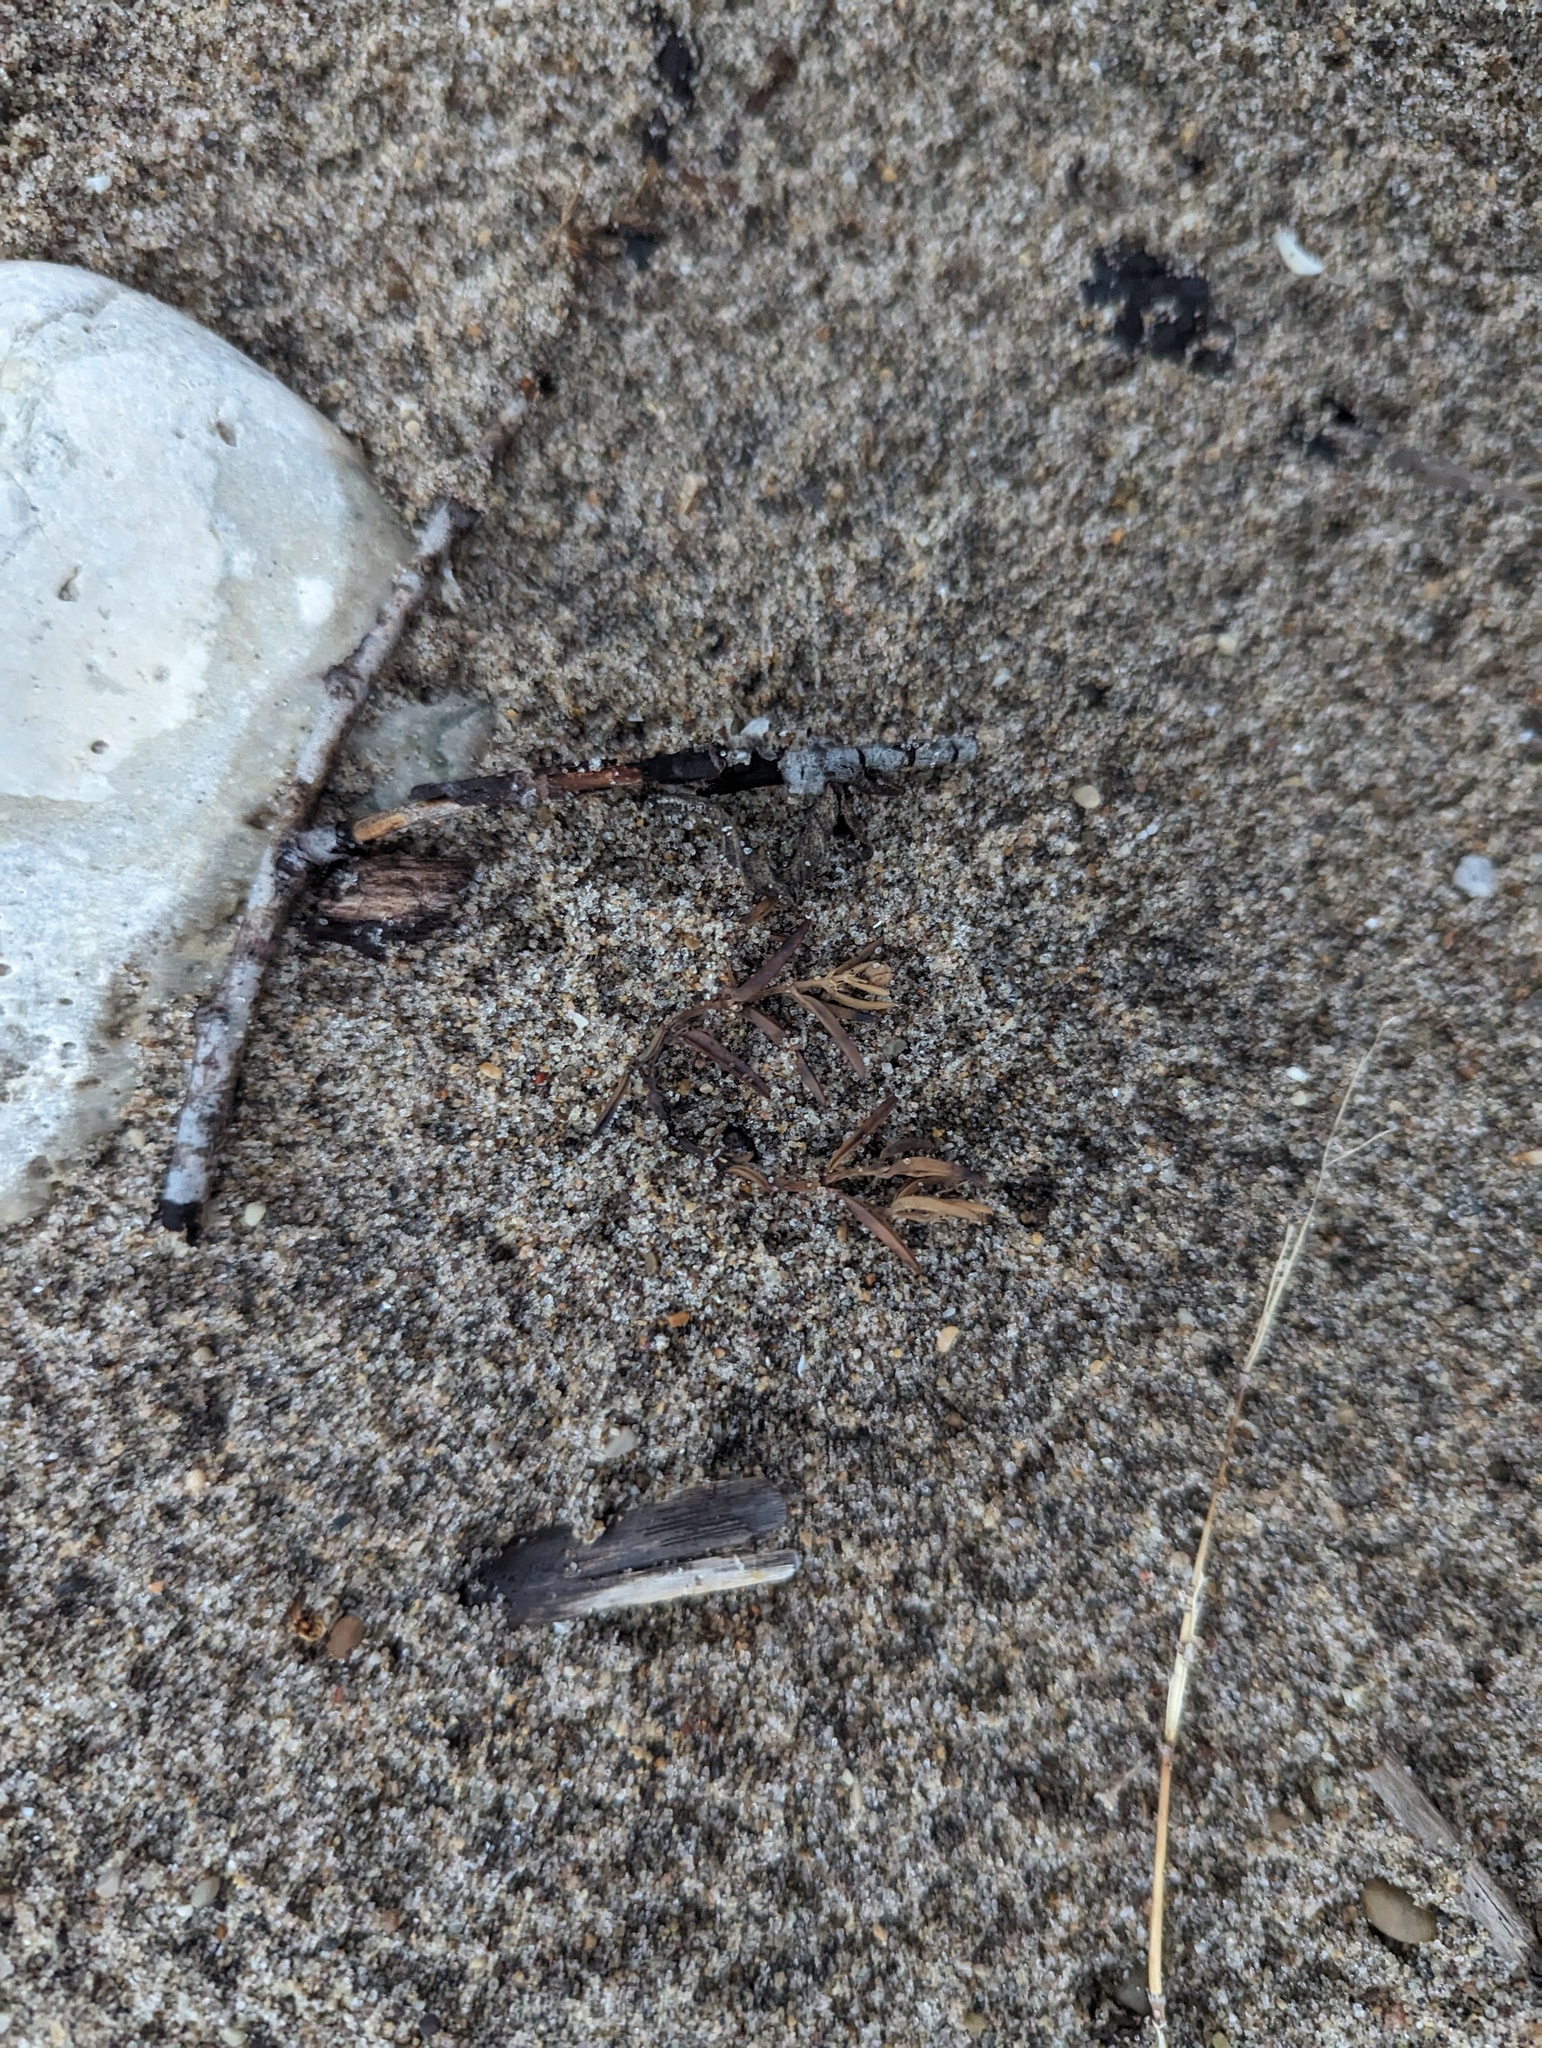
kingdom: Plantae
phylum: Tracheophyta
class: Magnoliopsida
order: Malpighiales
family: Euphorbiaceae
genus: Euphorbia
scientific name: Euphorbia polygonifolia
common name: Knotweed spurge
